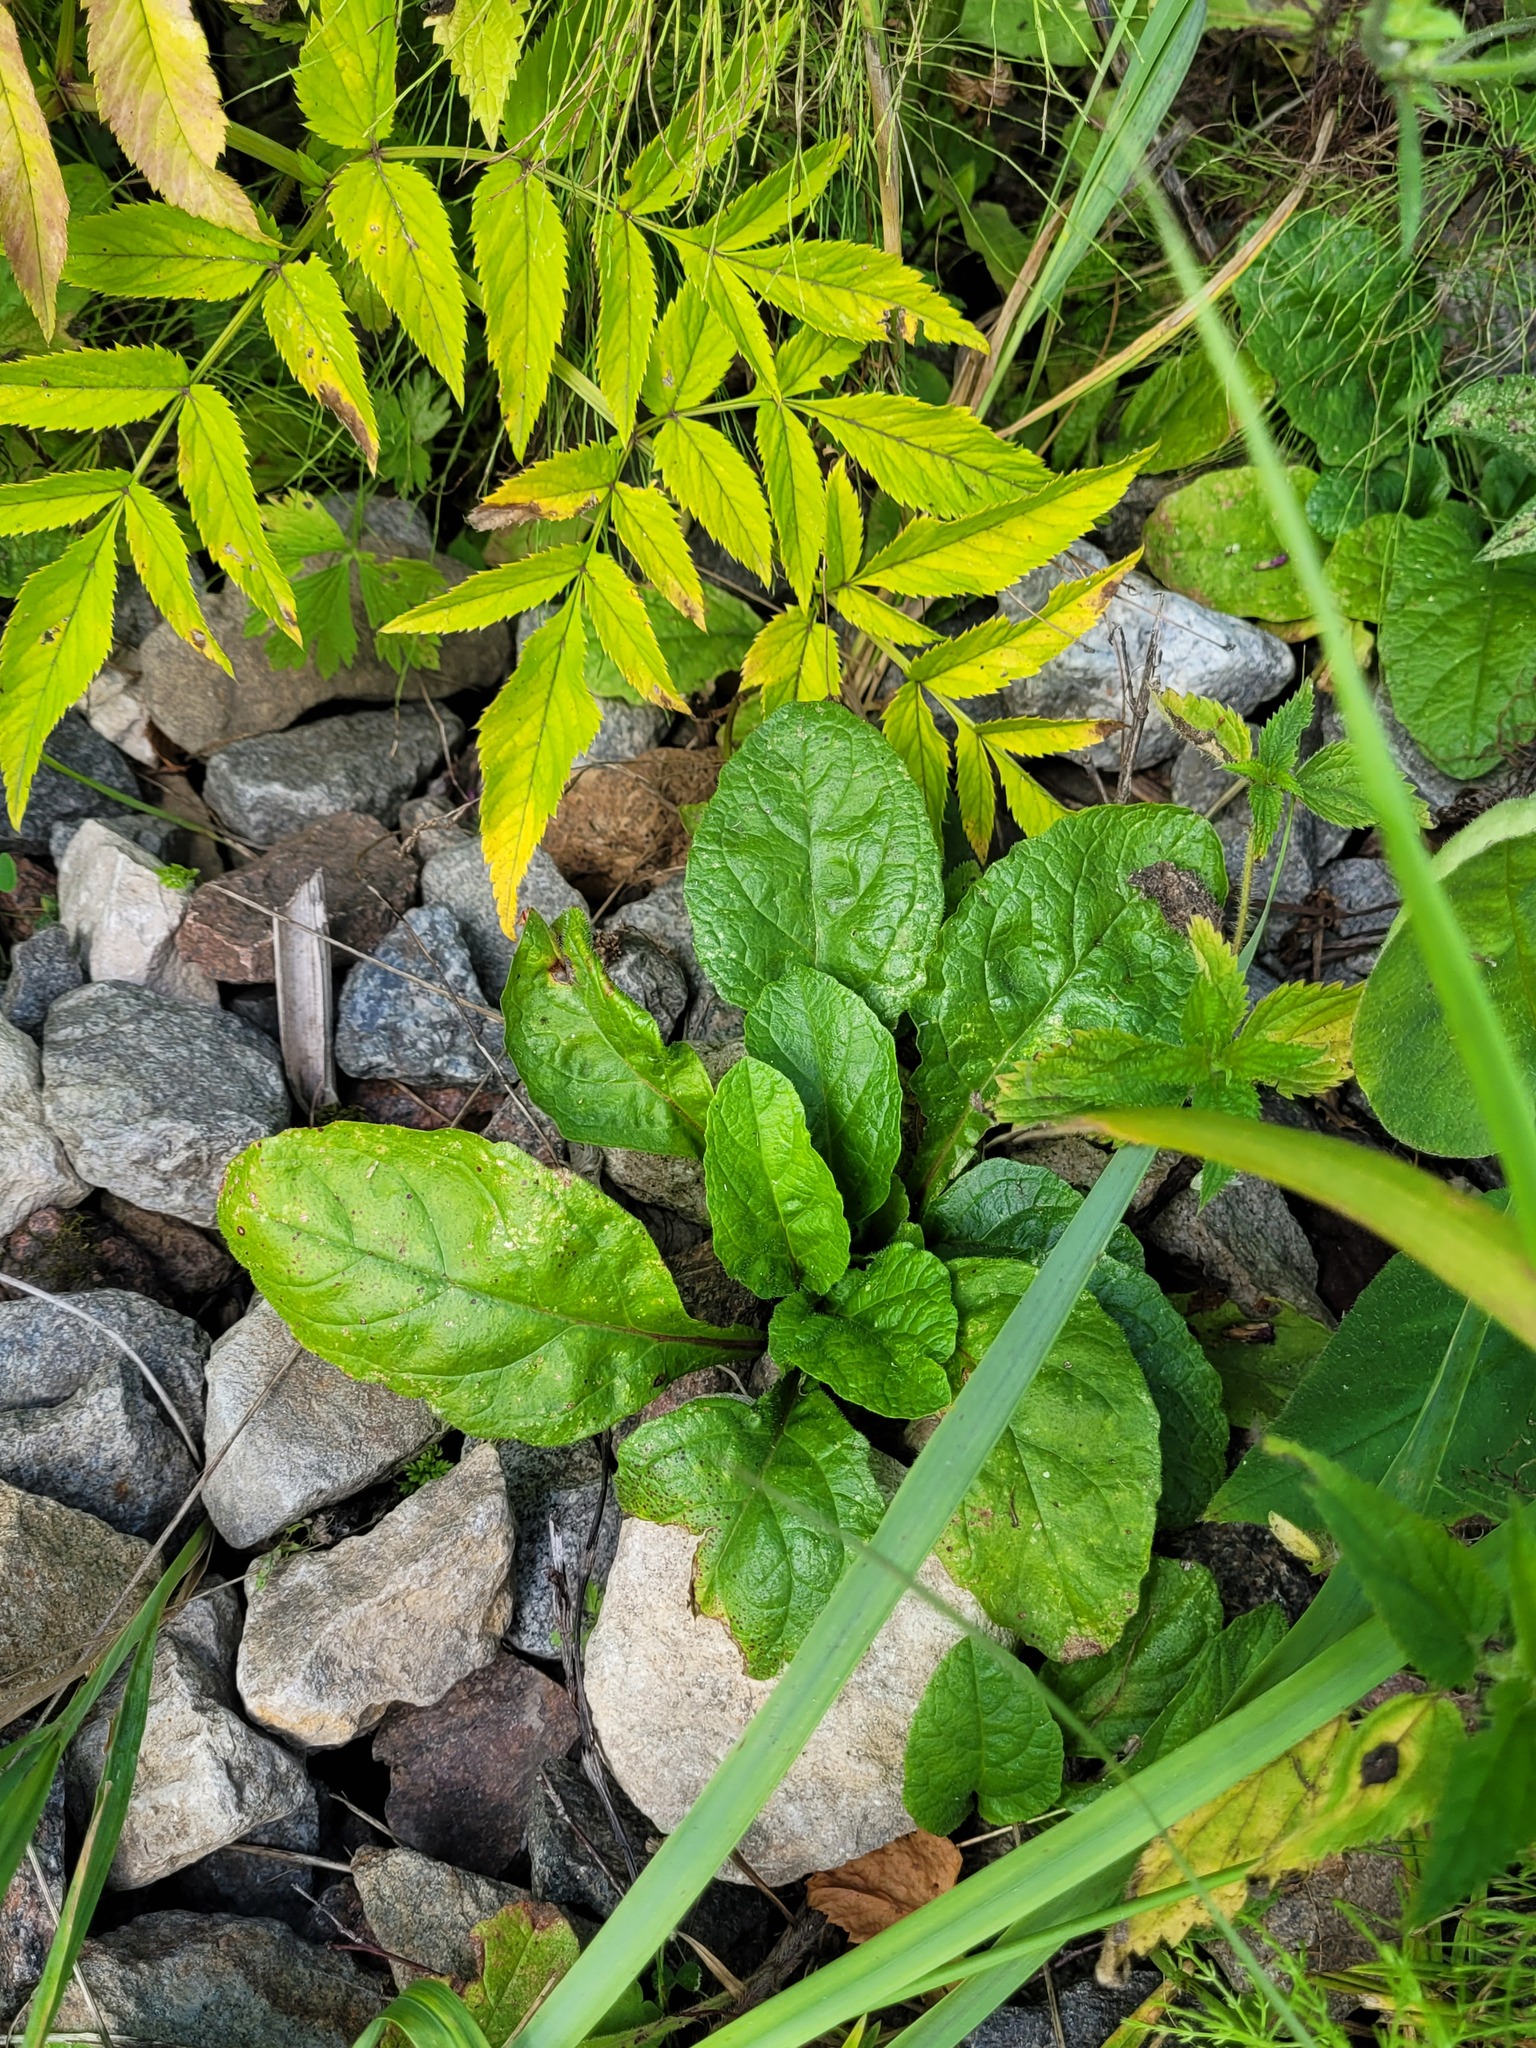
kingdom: Plantae
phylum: Tracheophyta
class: Magnoliopsida
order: Lamiales
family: Lamiaceae
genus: Ajuga
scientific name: Ajuga reptans
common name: Bugle
